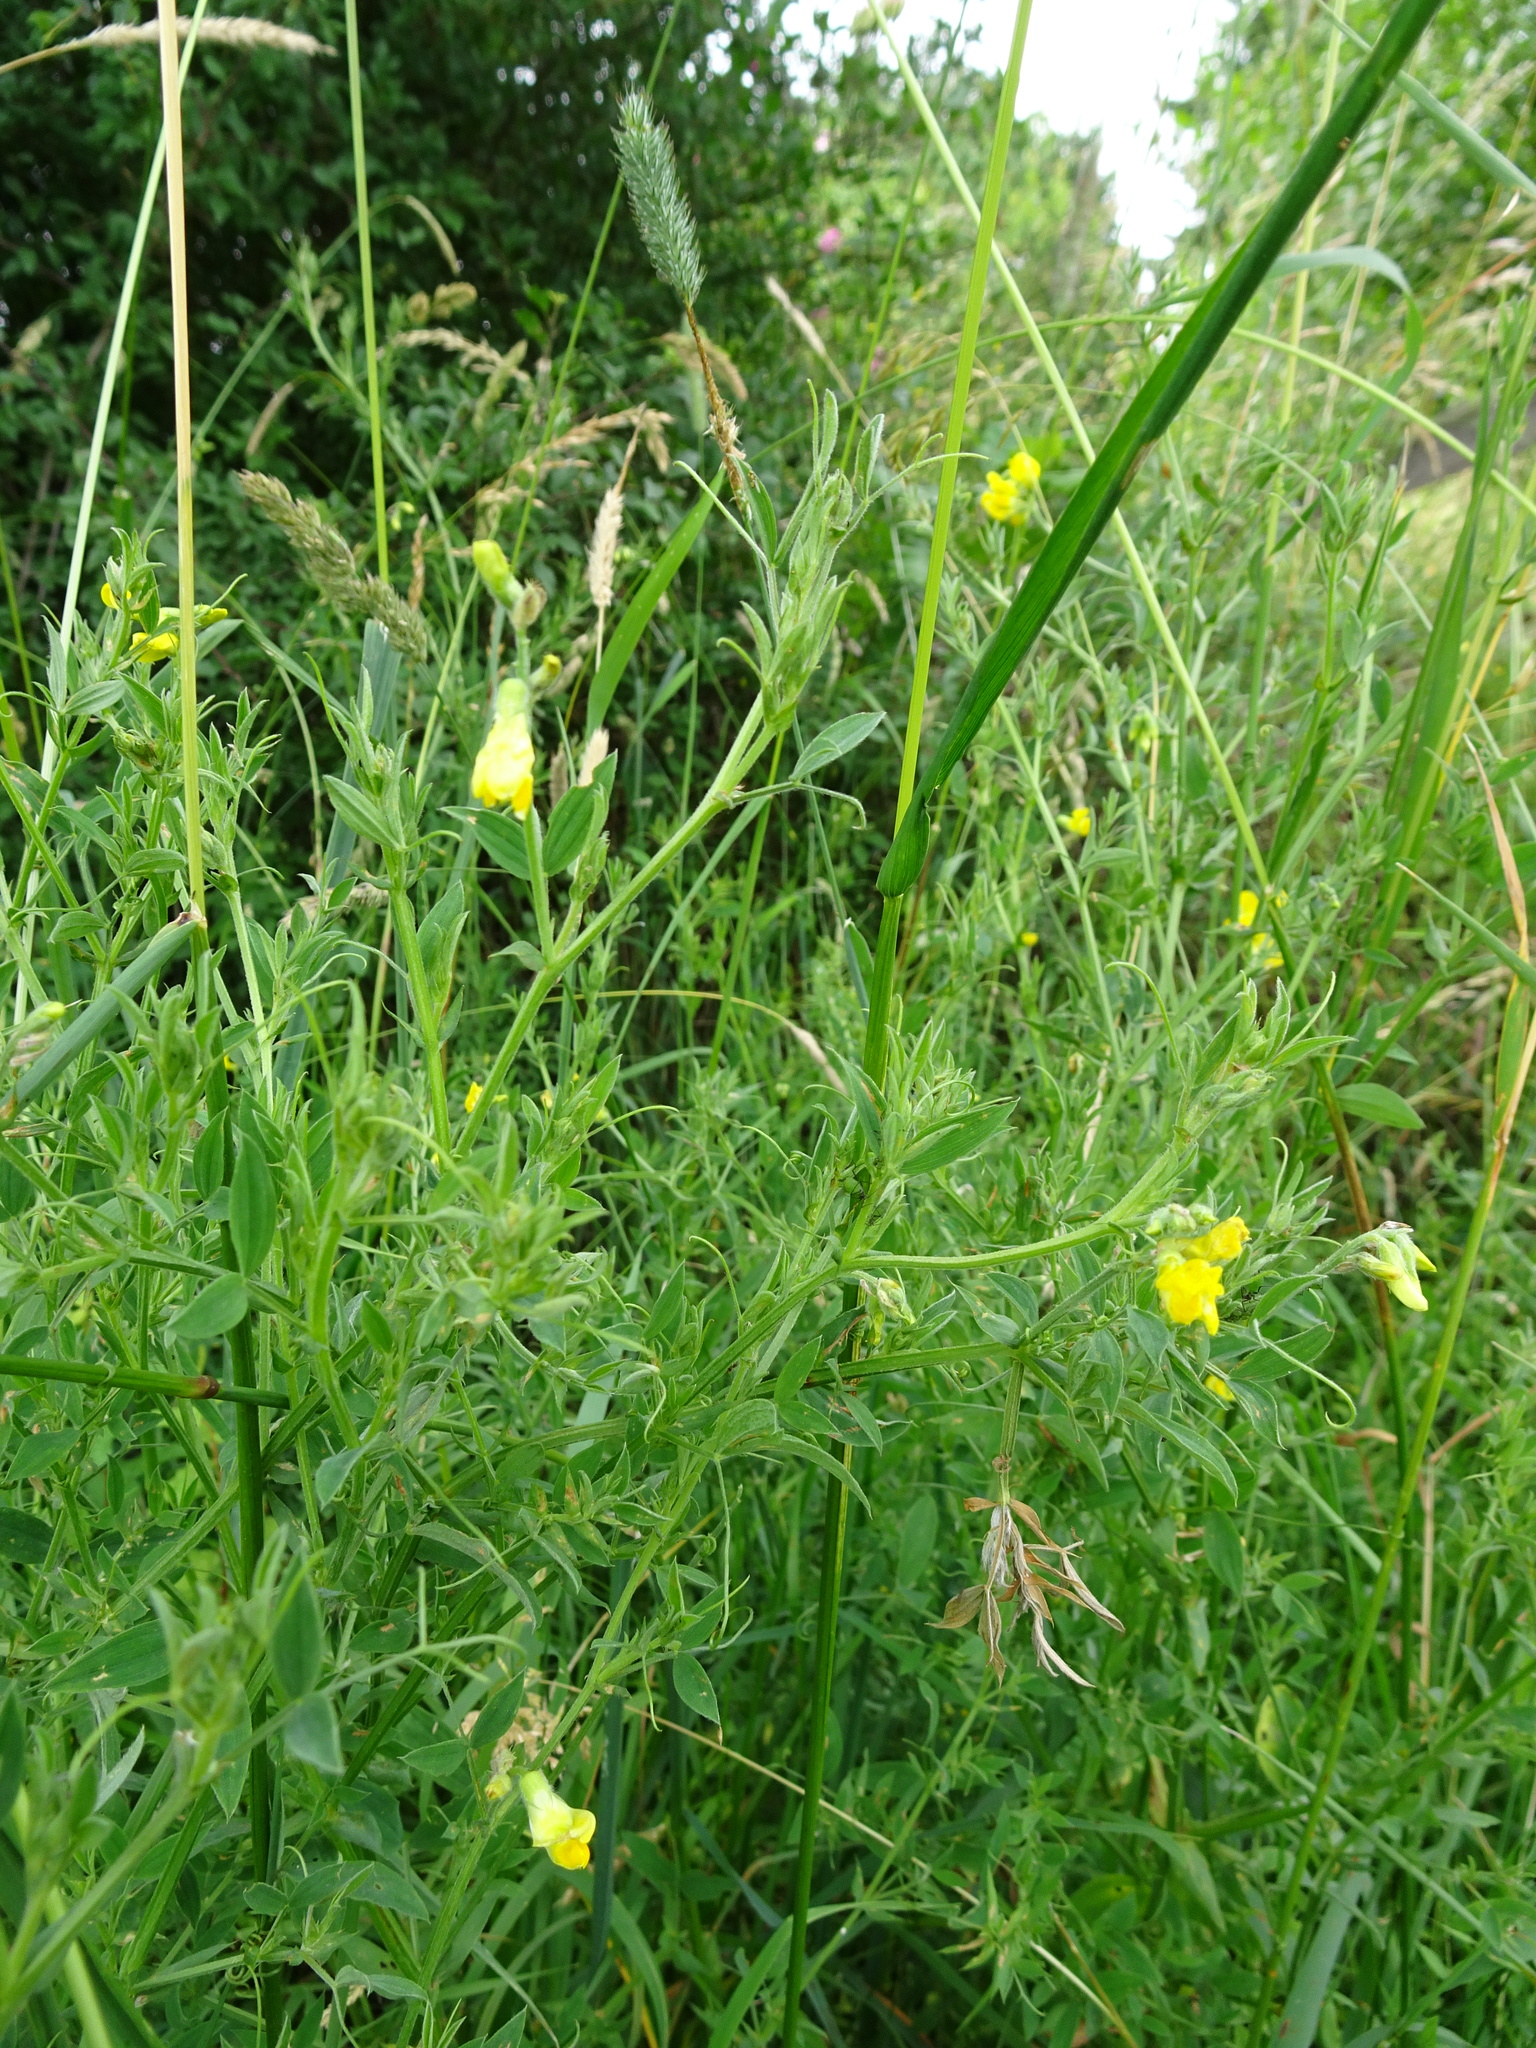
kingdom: Plantae
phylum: Tracheophyta
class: Magnoliopsida
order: Fabales
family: Fabaceae
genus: Lathyrus
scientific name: Lathyrus pratensis
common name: Meadow vetchling
